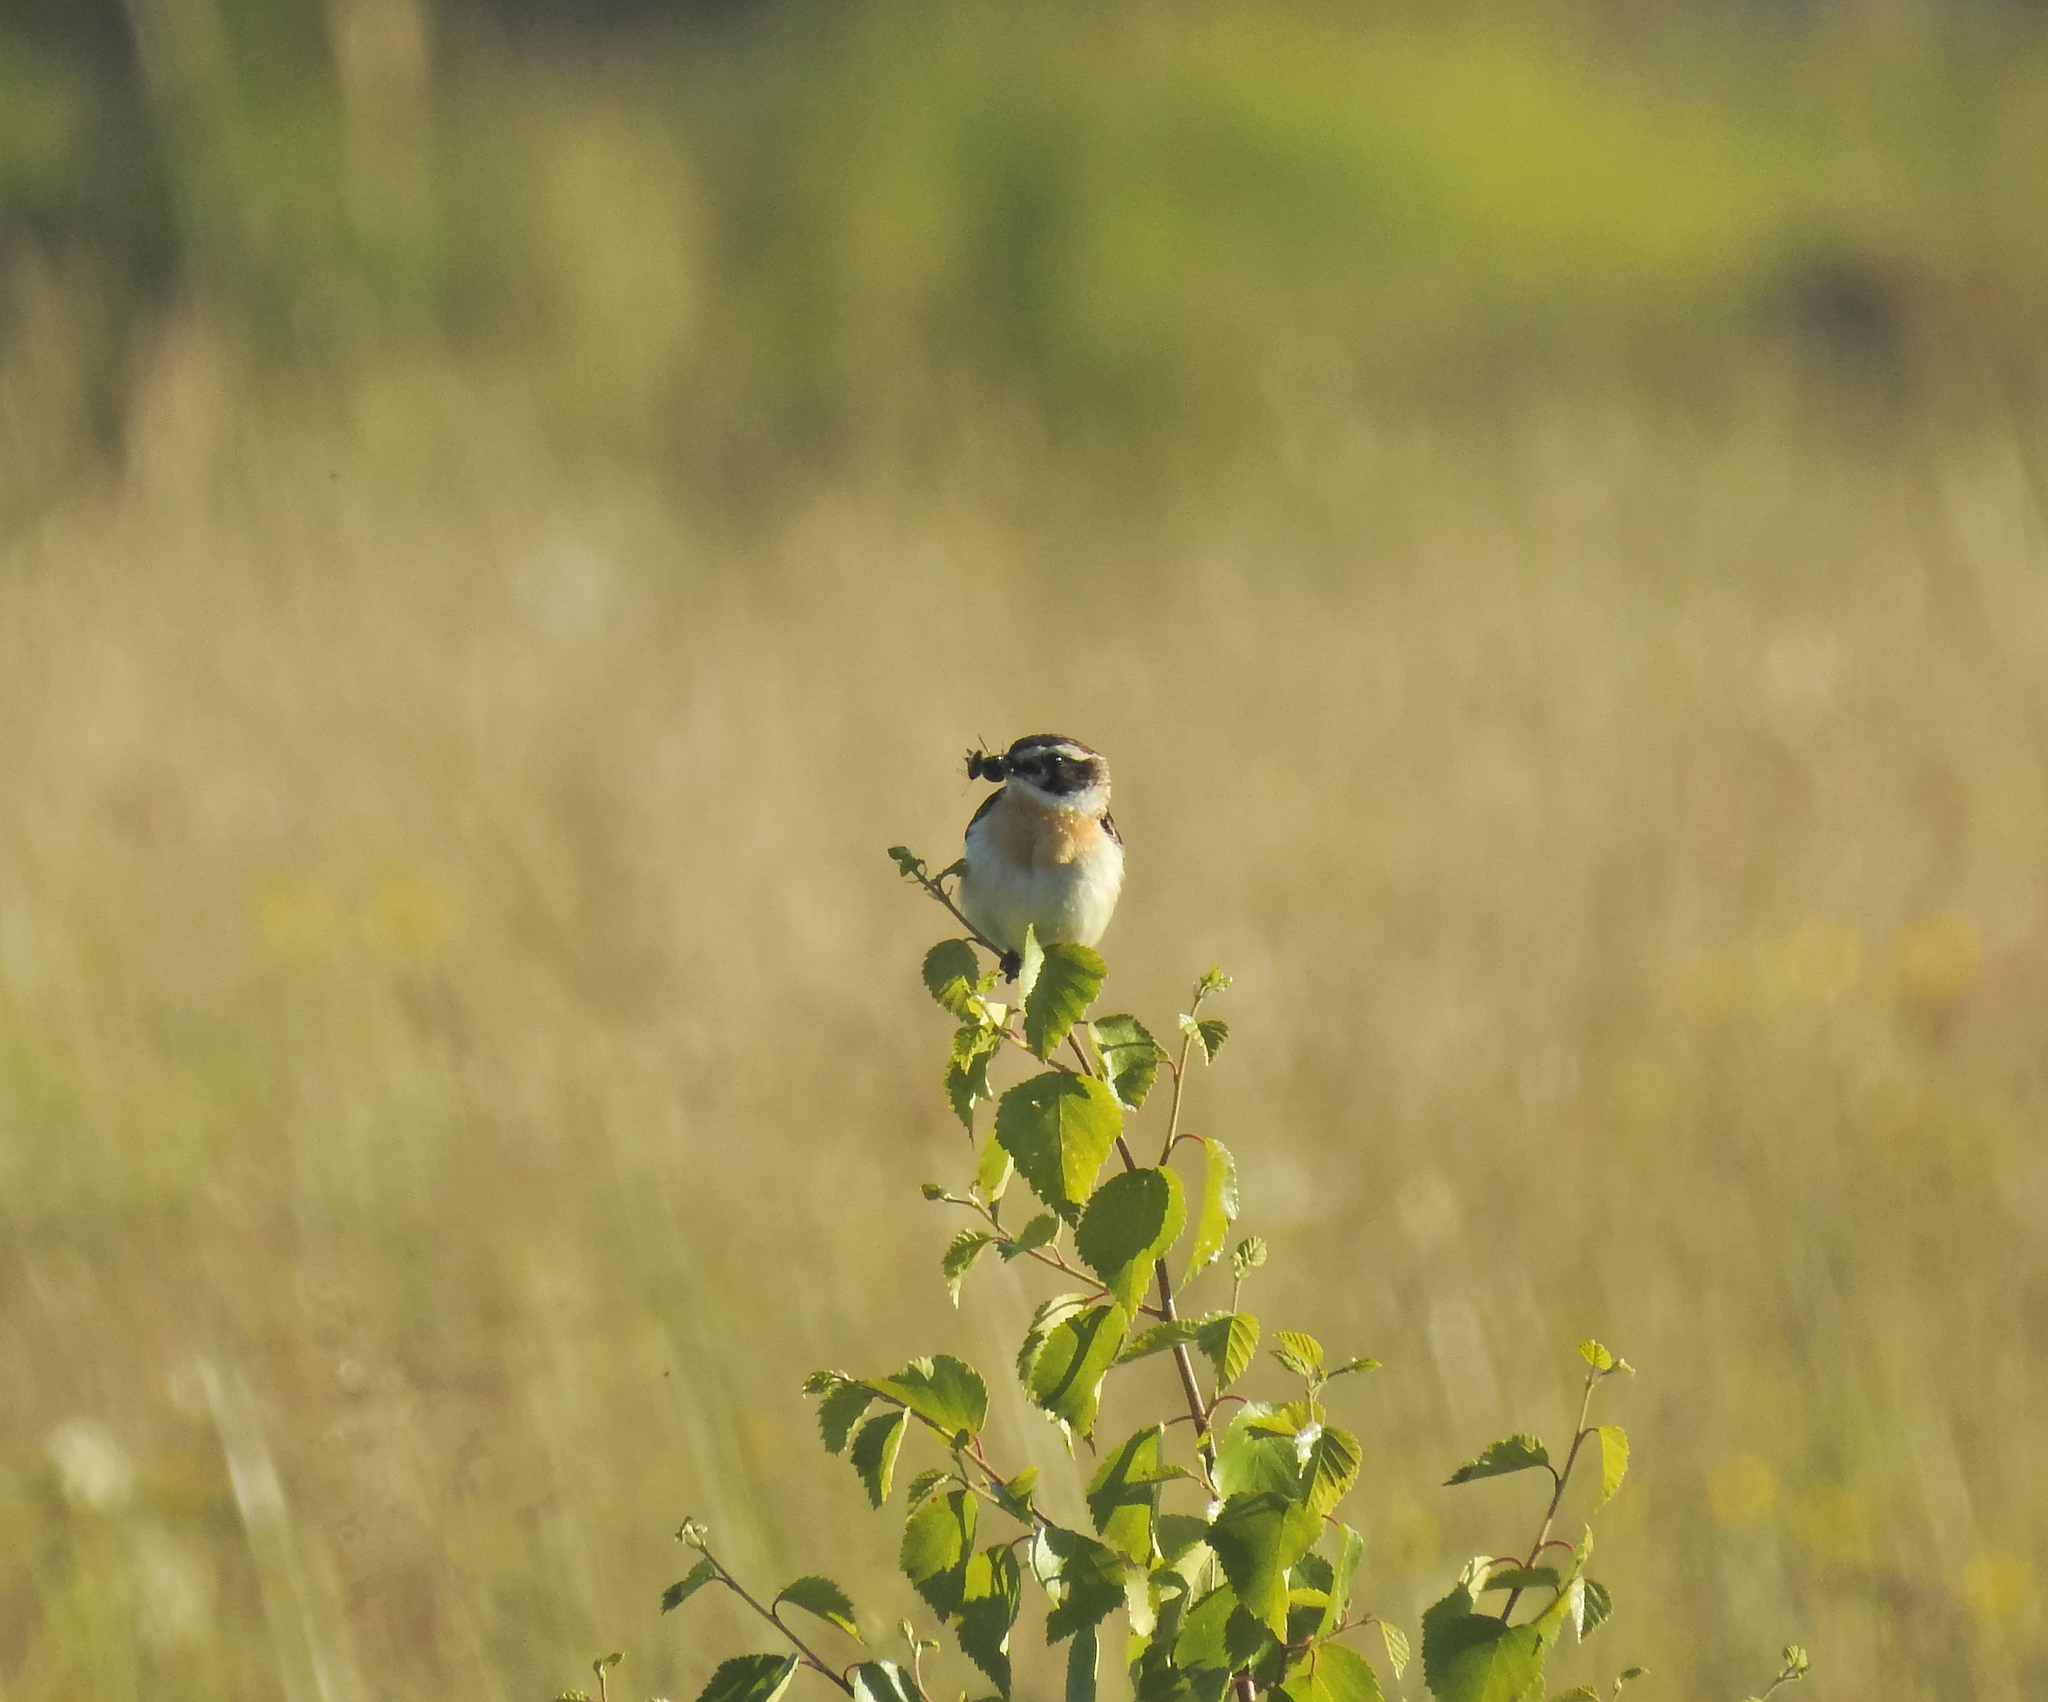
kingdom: Animalia
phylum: Chordata
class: Aves
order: Passeriformes
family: Muscicapidae
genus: Saxicola
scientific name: Saxicola rubetra
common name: Whinchat
